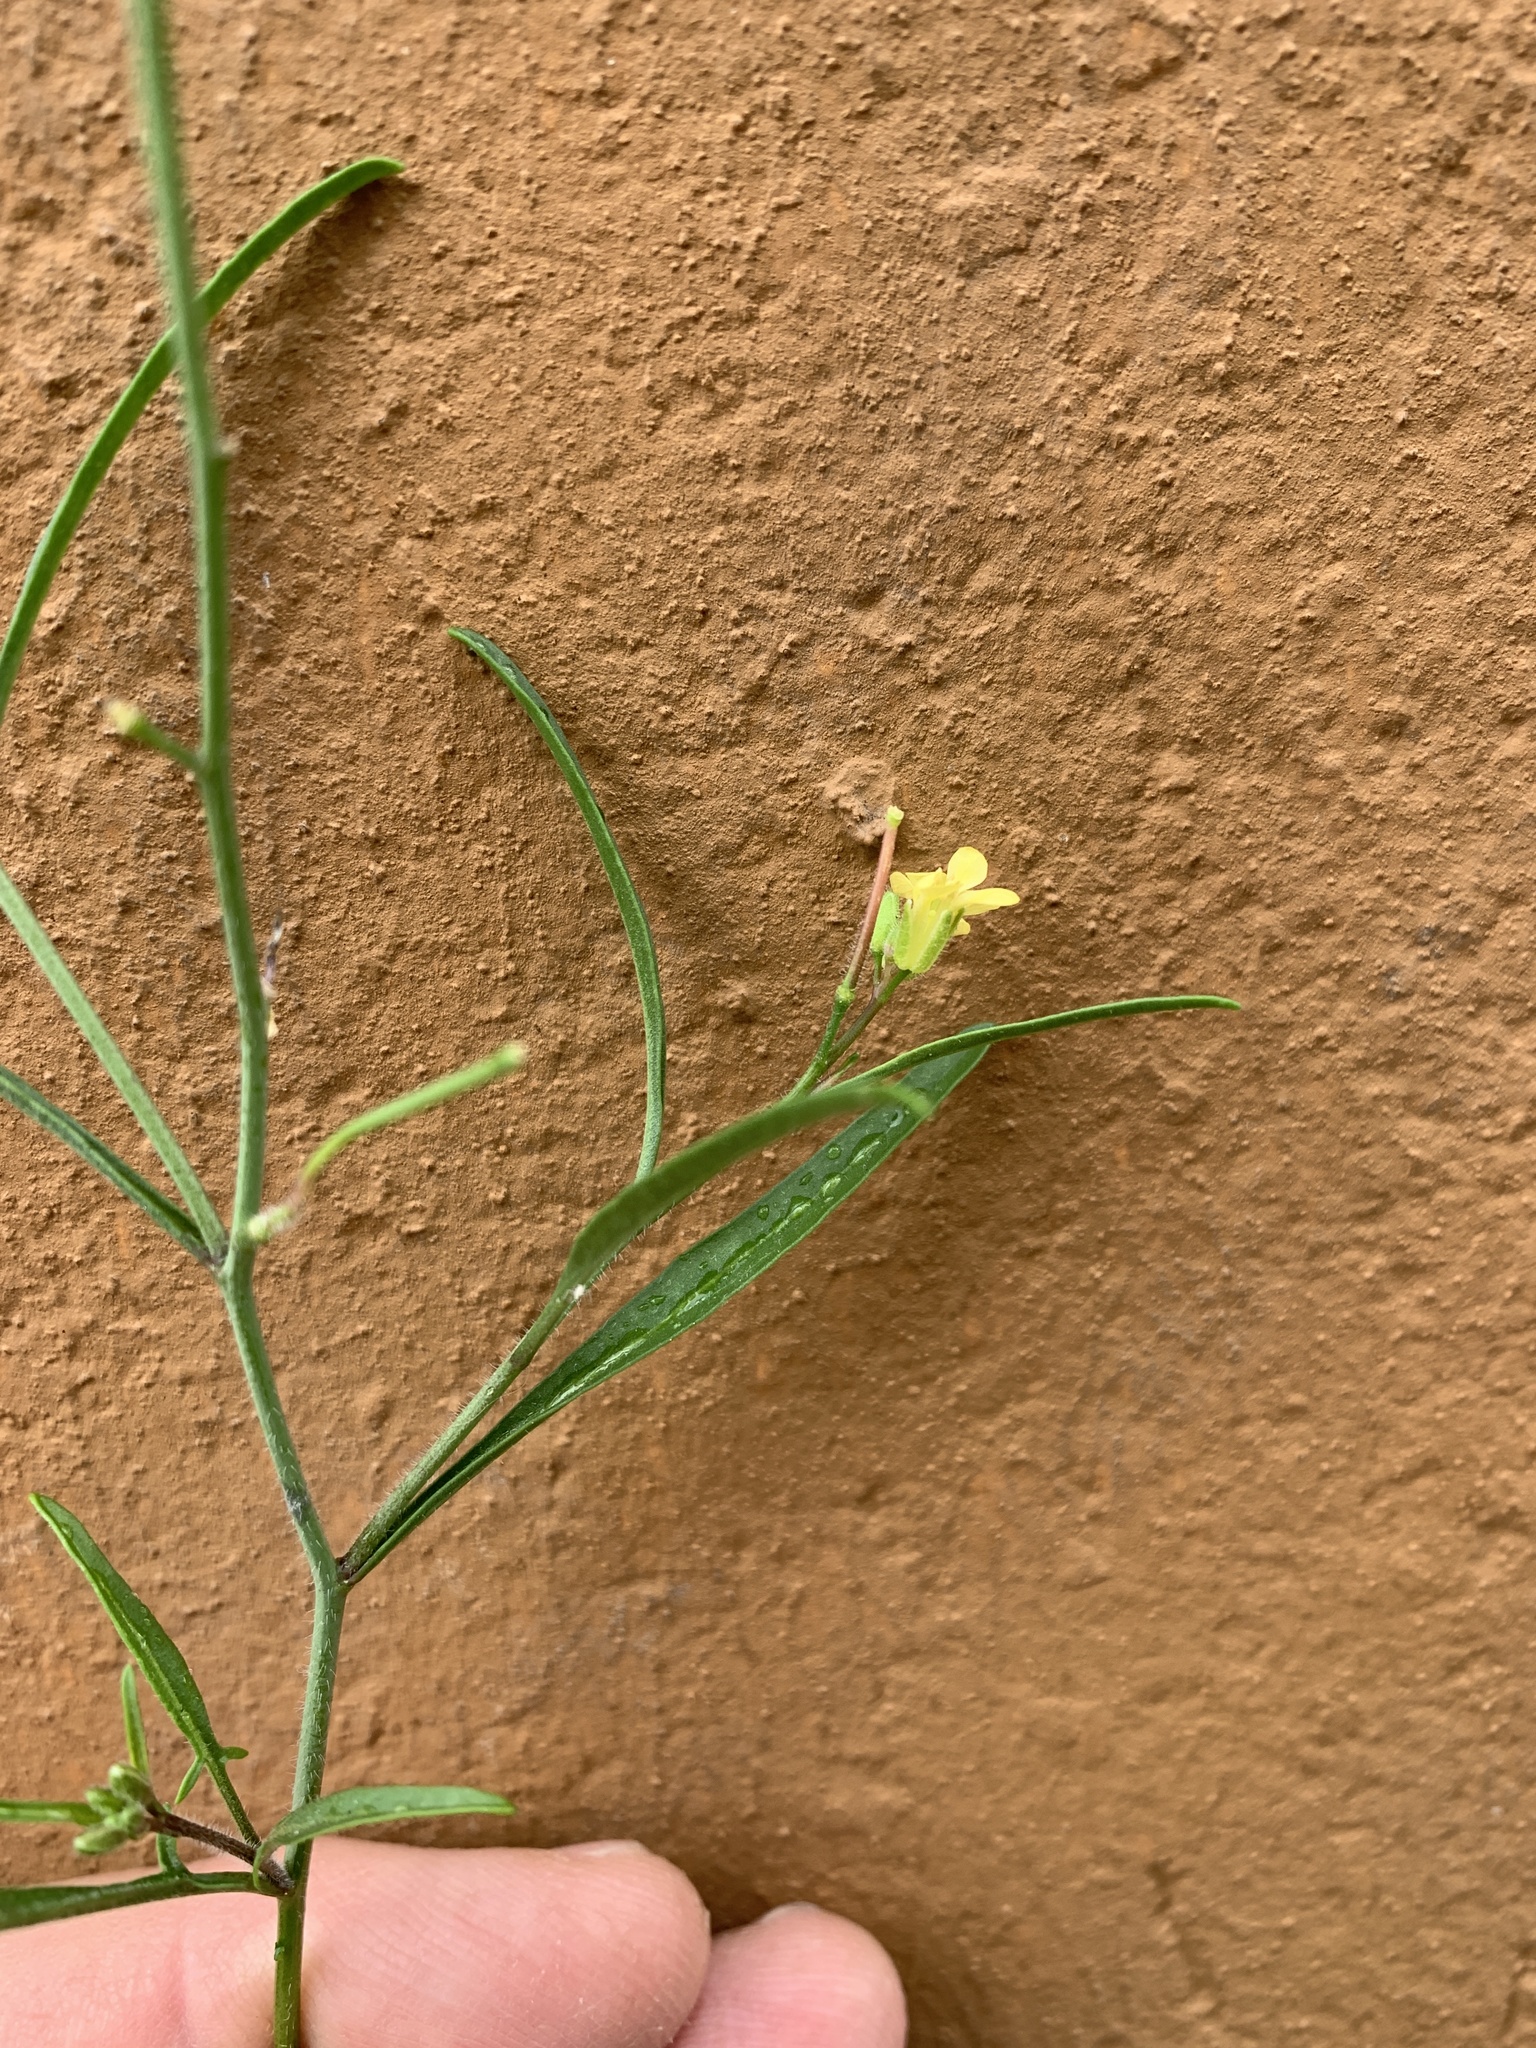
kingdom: Plantae
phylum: Tracheophyta
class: Magnoliopsida
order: Brassicales
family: Brassicaceae
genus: Sisymbrium
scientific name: Sisymbrium orientale
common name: Eastern rocket
